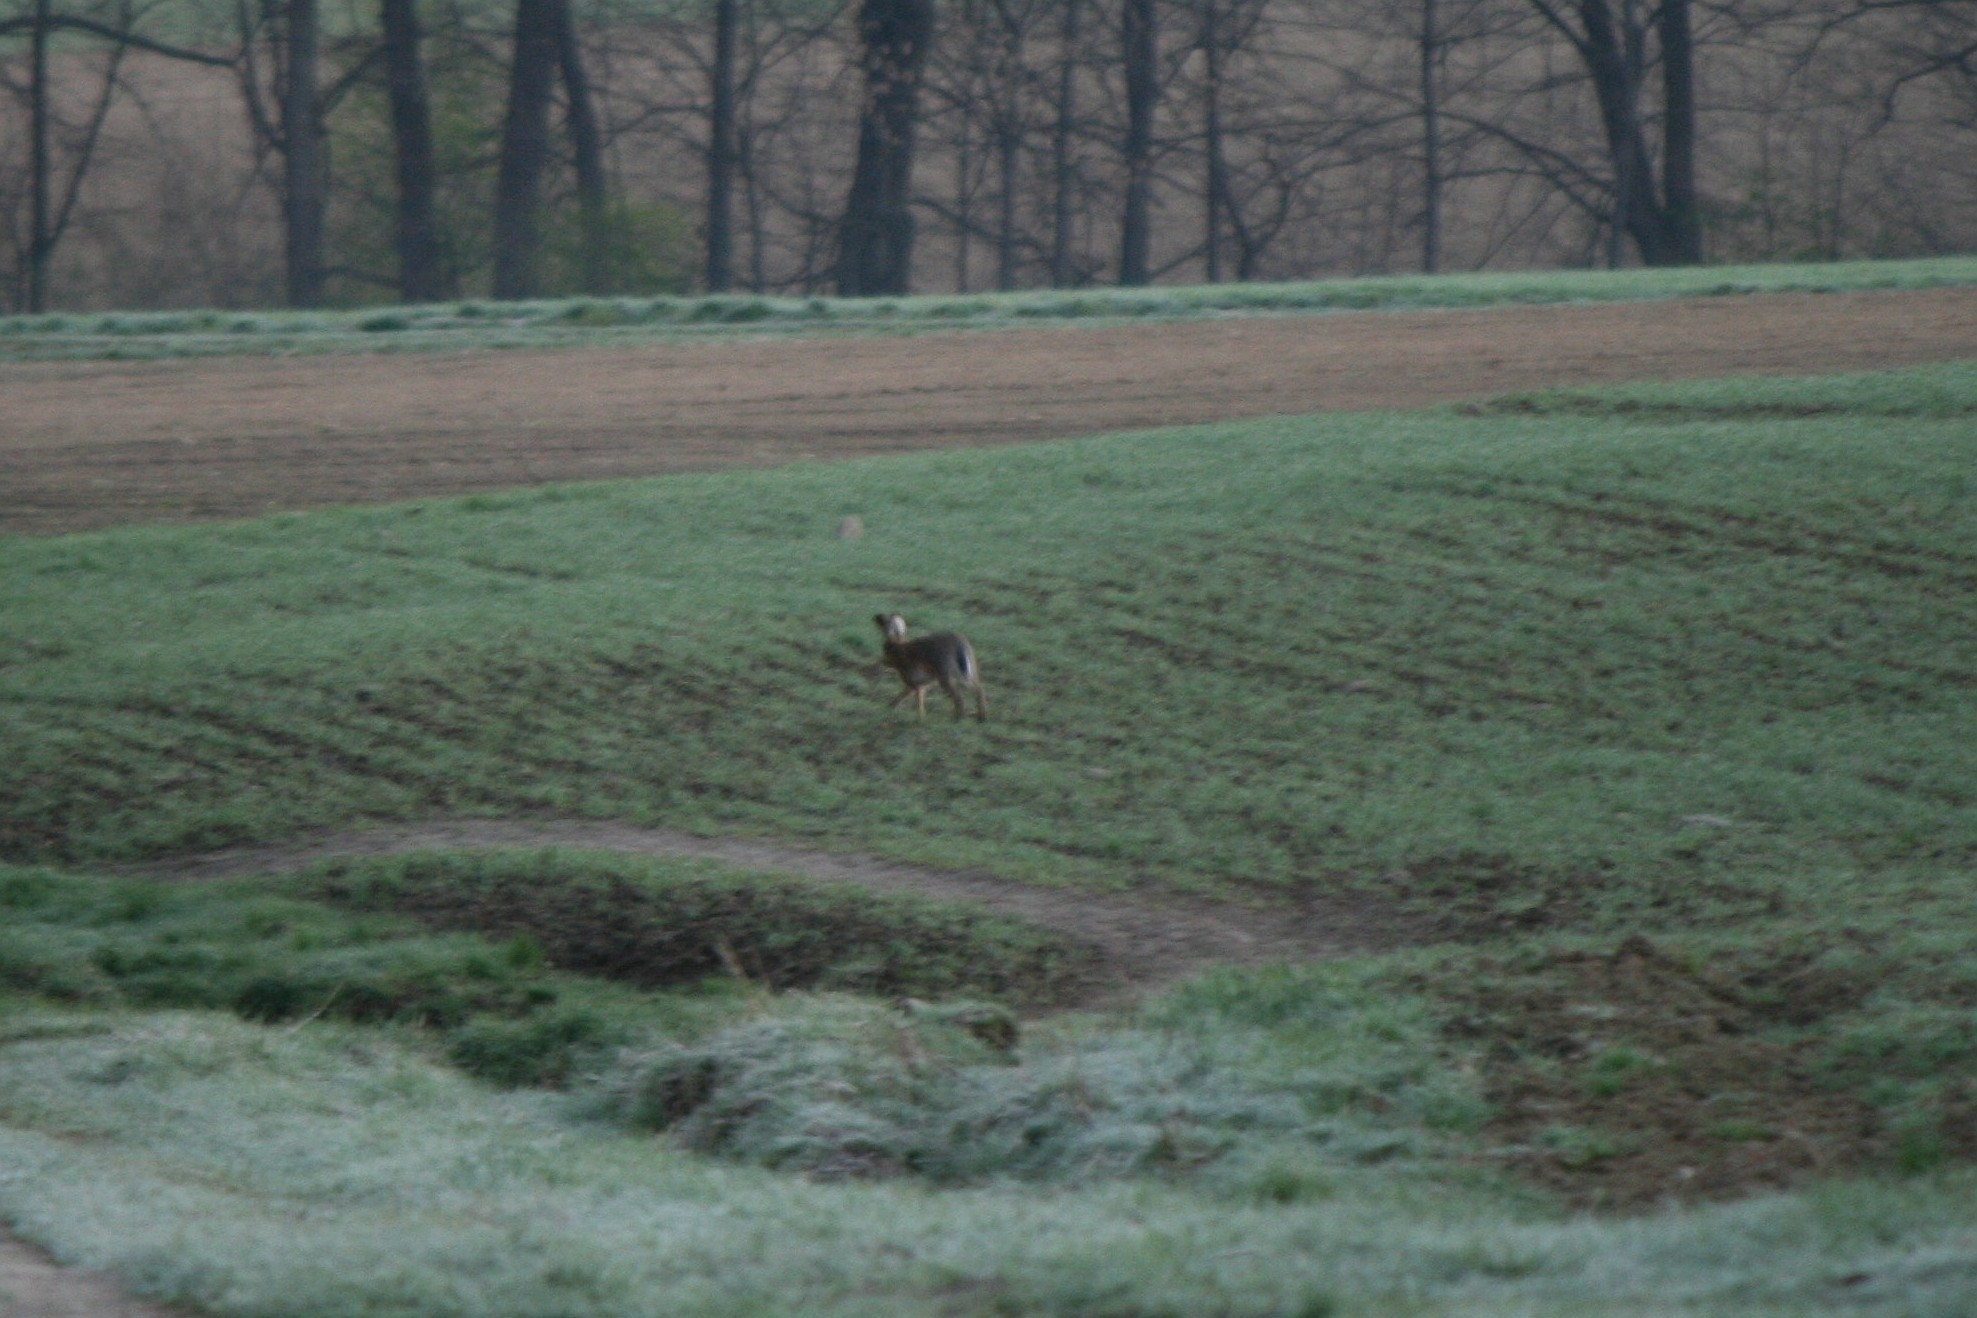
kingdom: Animalia
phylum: Chordata
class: Mammalia
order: Lagomorpha
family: Leporidae
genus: Lepus
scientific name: Lepus europaeus
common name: European hare
